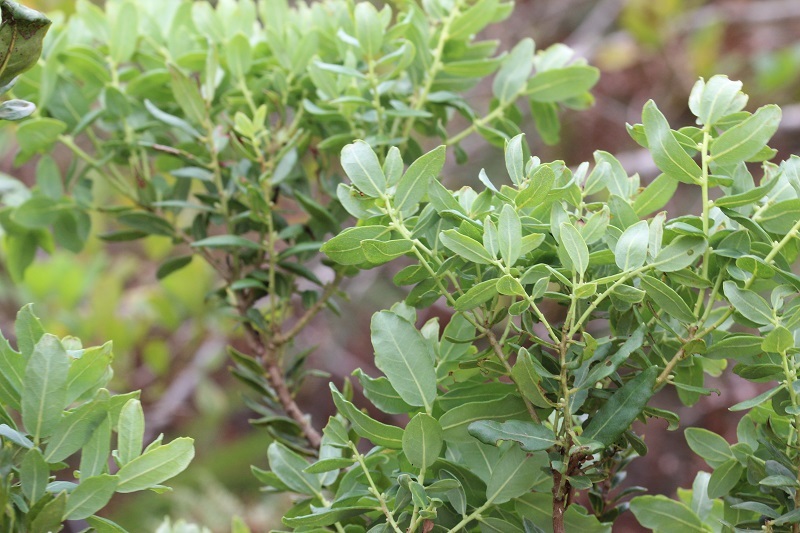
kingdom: Plantae
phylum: Tracheophyta
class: Magnoliopsida
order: Fagales
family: Myricaceae
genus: Morella
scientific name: Morella humilis
